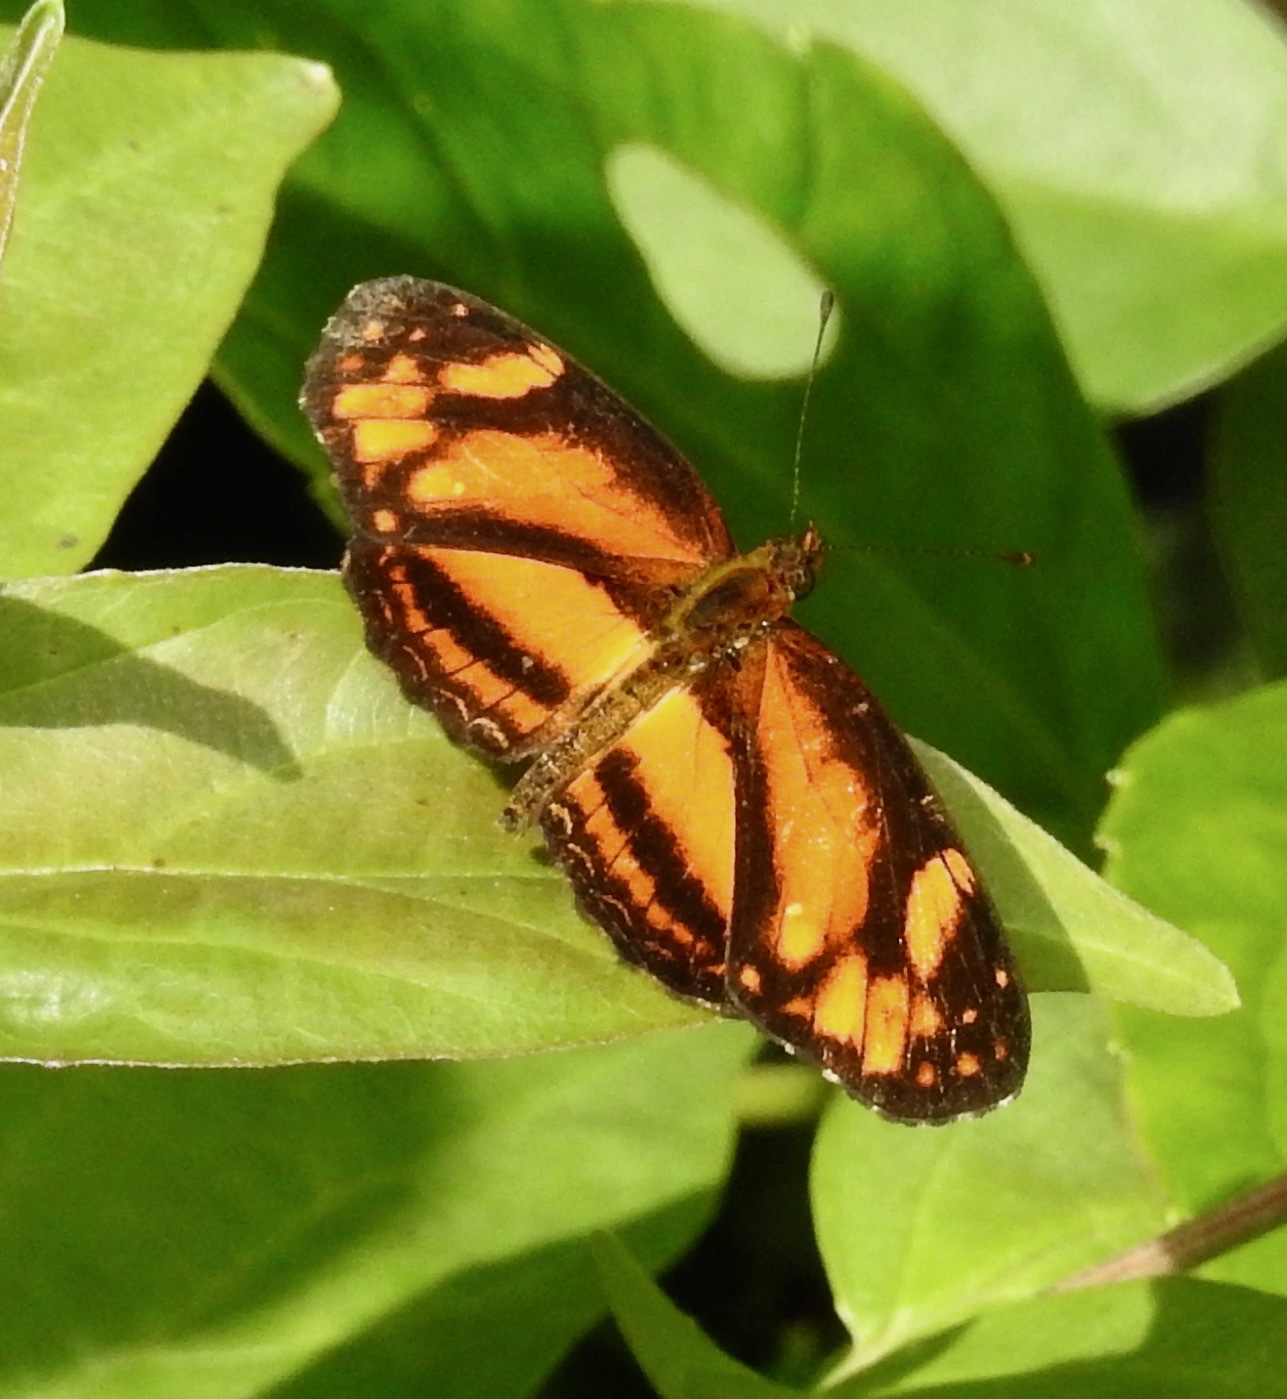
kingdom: Animalia
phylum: Arthropoda
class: Insecta
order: Lepidoptera
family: Nymphalidae
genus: Castilia
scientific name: Castilia eranites
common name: Smudged crescent
